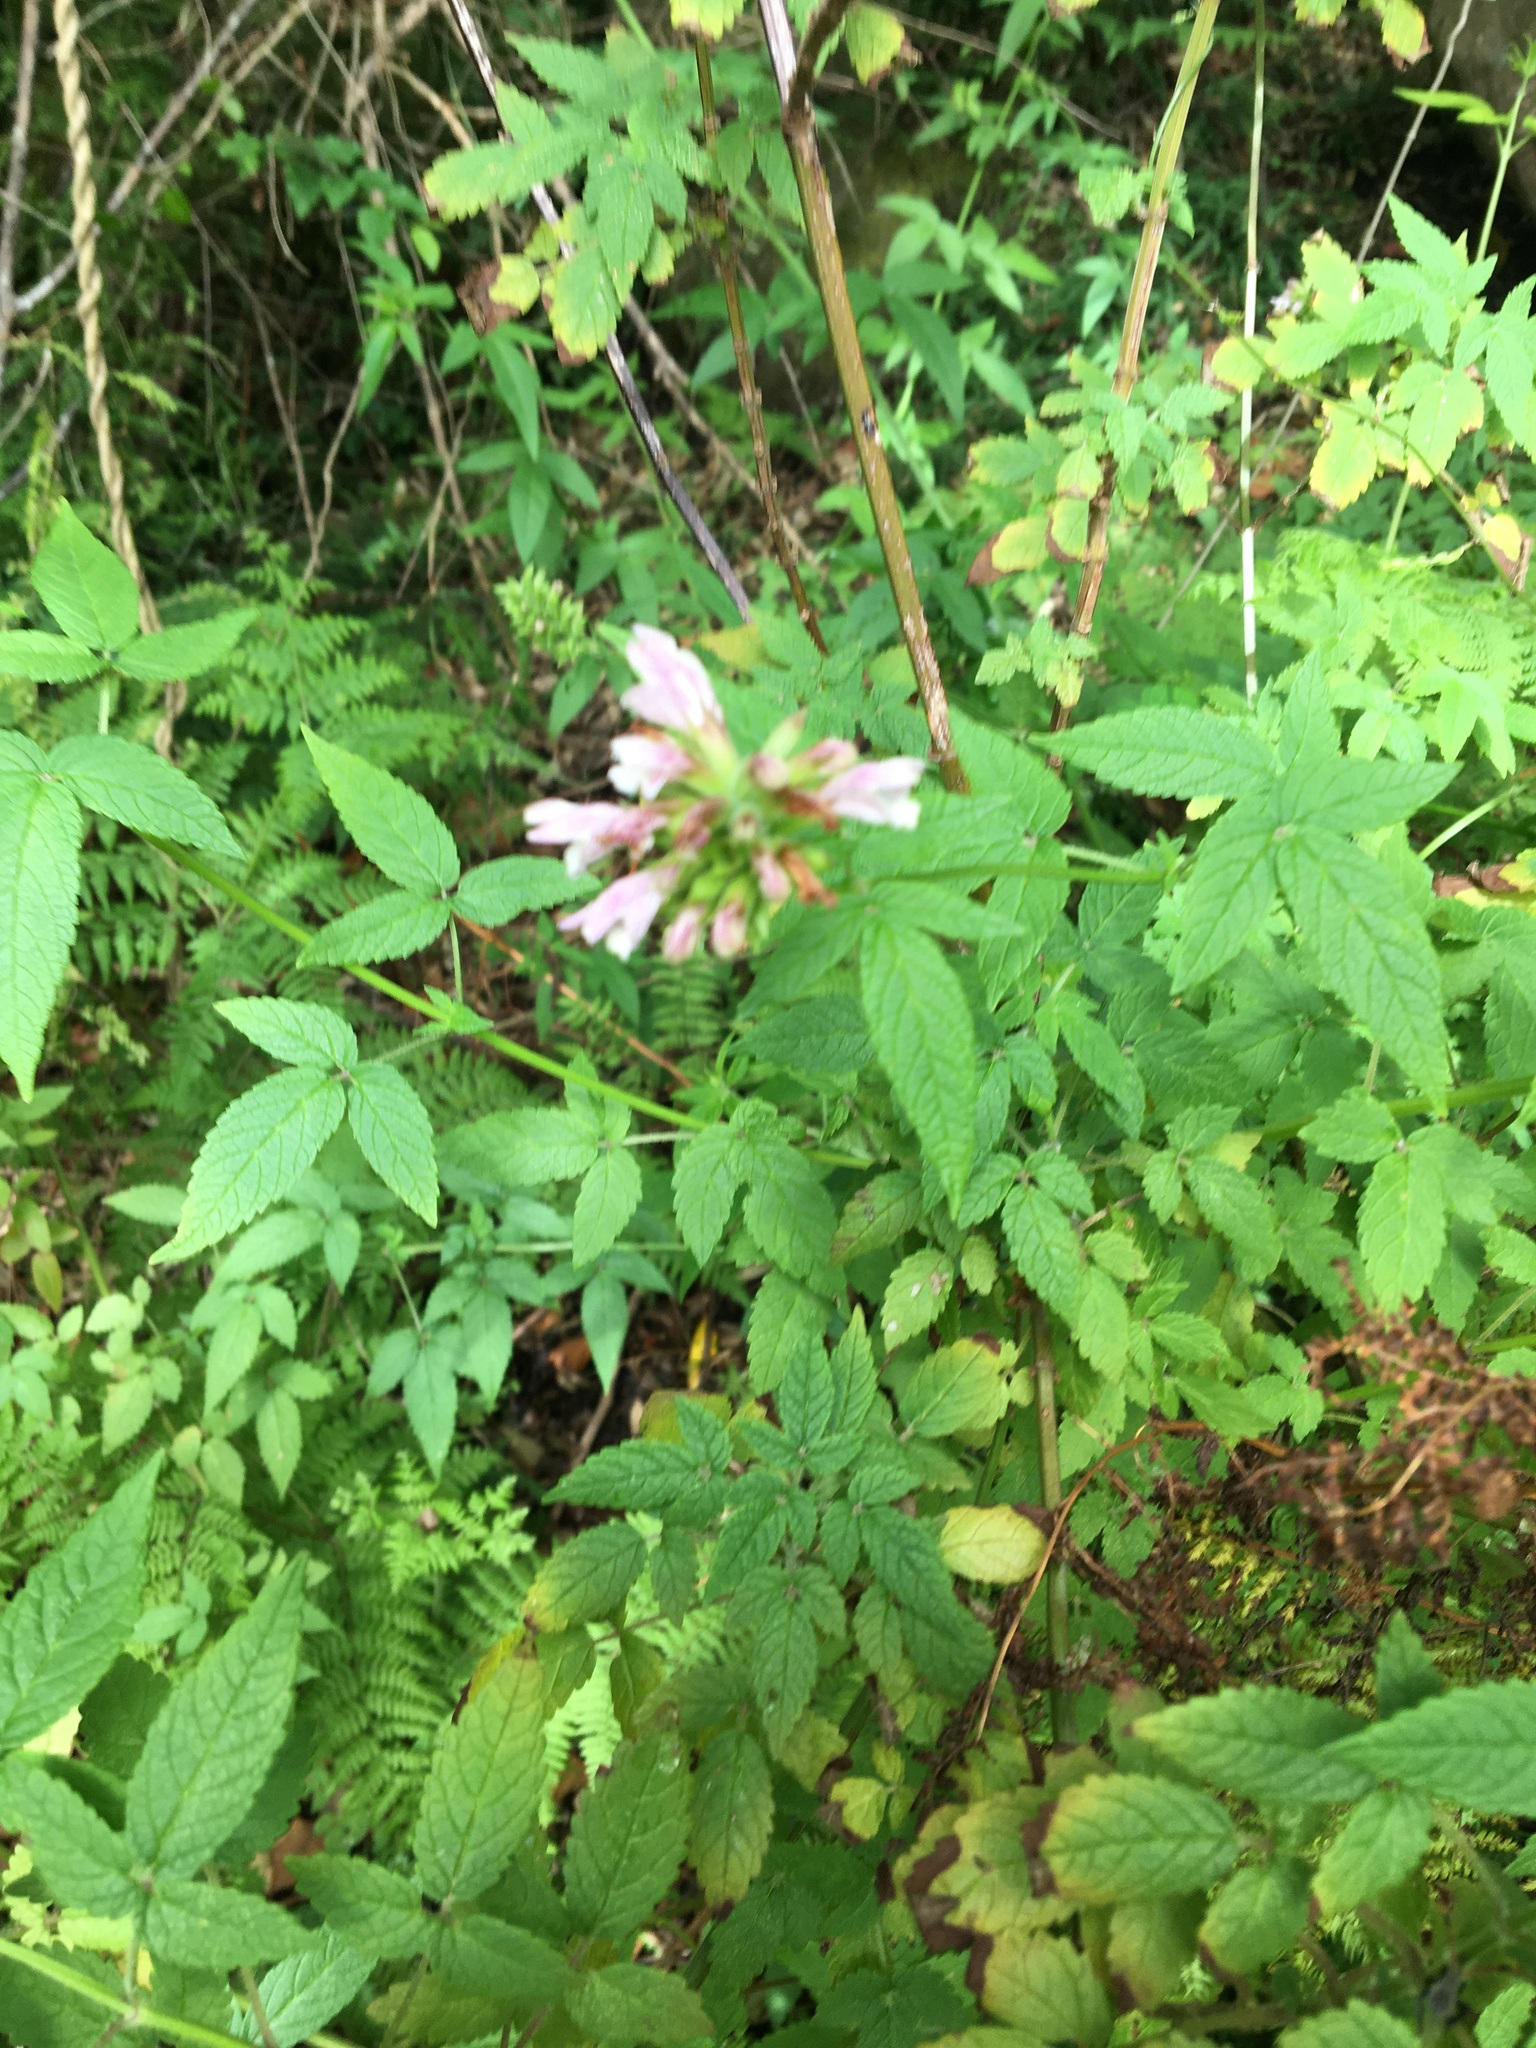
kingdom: Plantae
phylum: Tracheophyta
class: Magnoliopsida
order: Lamiales
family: Lamiaceae
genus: Cedronella
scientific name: Cedronella canariensis
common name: Canary islands balm
